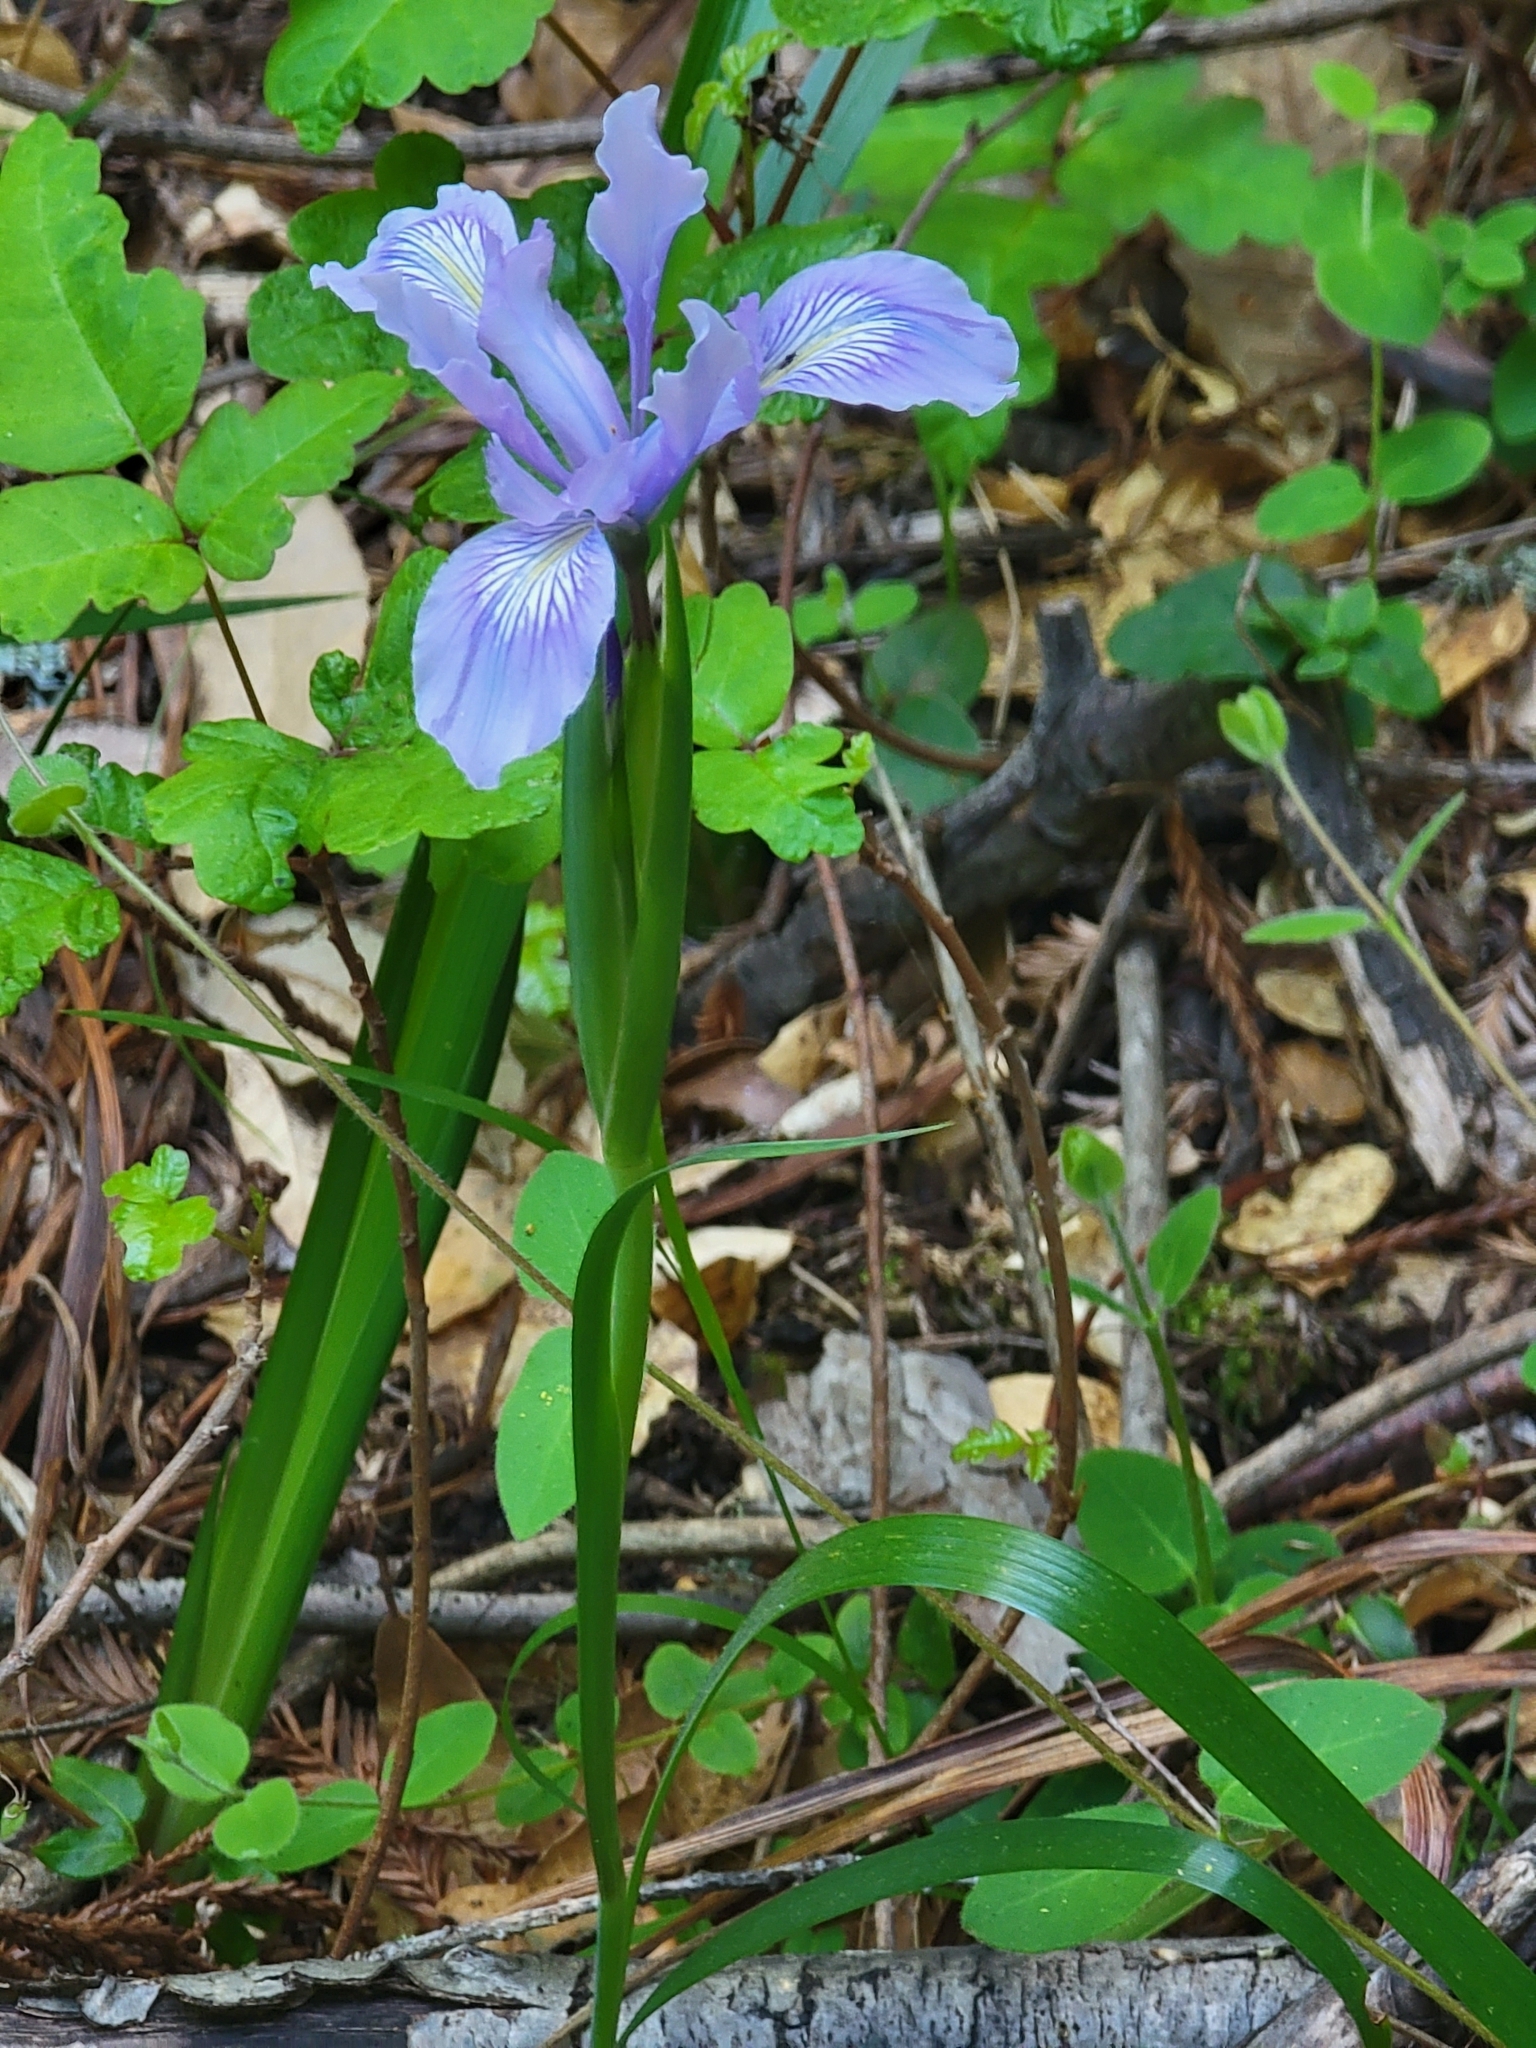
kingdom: Plantae
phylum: Tracheophyta
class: Liliopsida
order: Asparagales
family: Iridaceae
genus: Iris
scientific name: Iris douglasiana
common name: Marin iris
